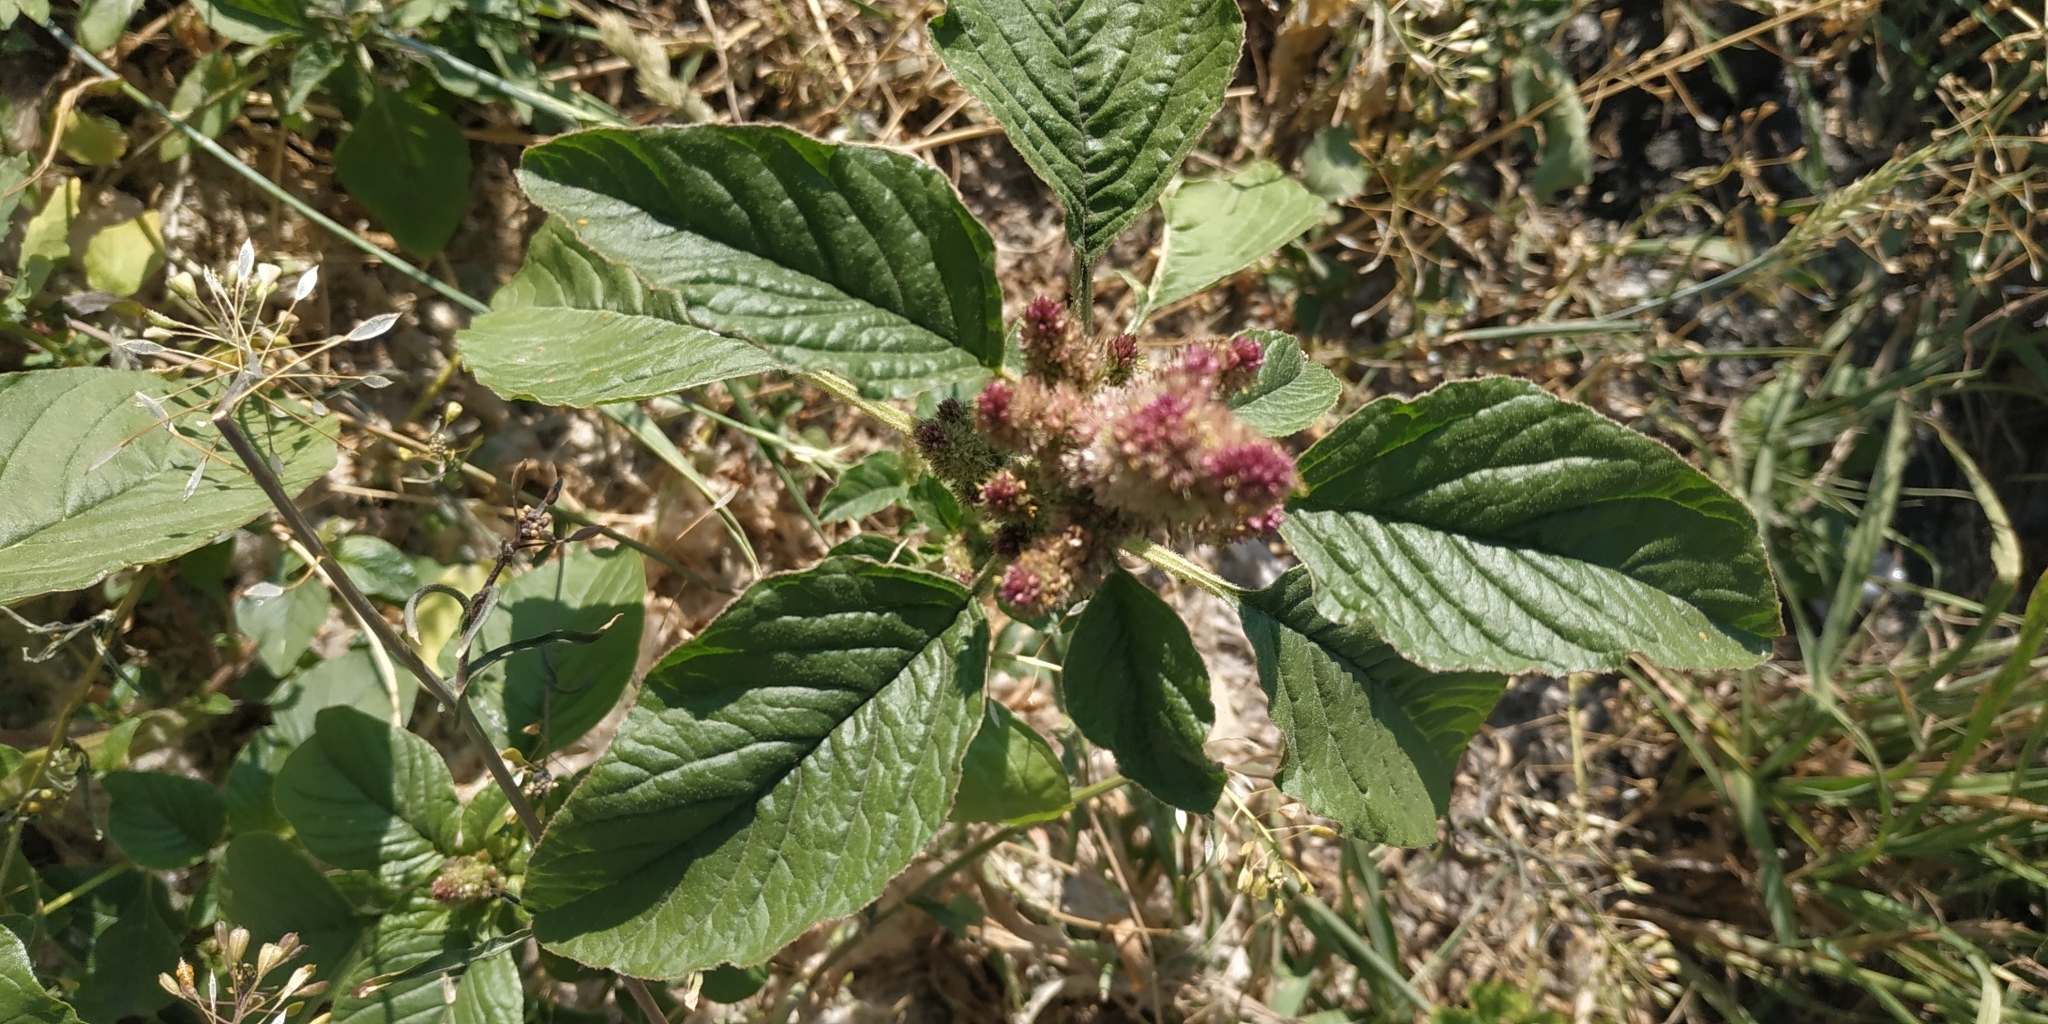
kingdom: Plantae
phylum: Tracheophyta
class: Magnoliopsida
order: Caryophyllales
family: Amaranthaceae
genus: Amaranthus
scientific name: Amaranthus retroflexus
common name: Redroot amaranth
